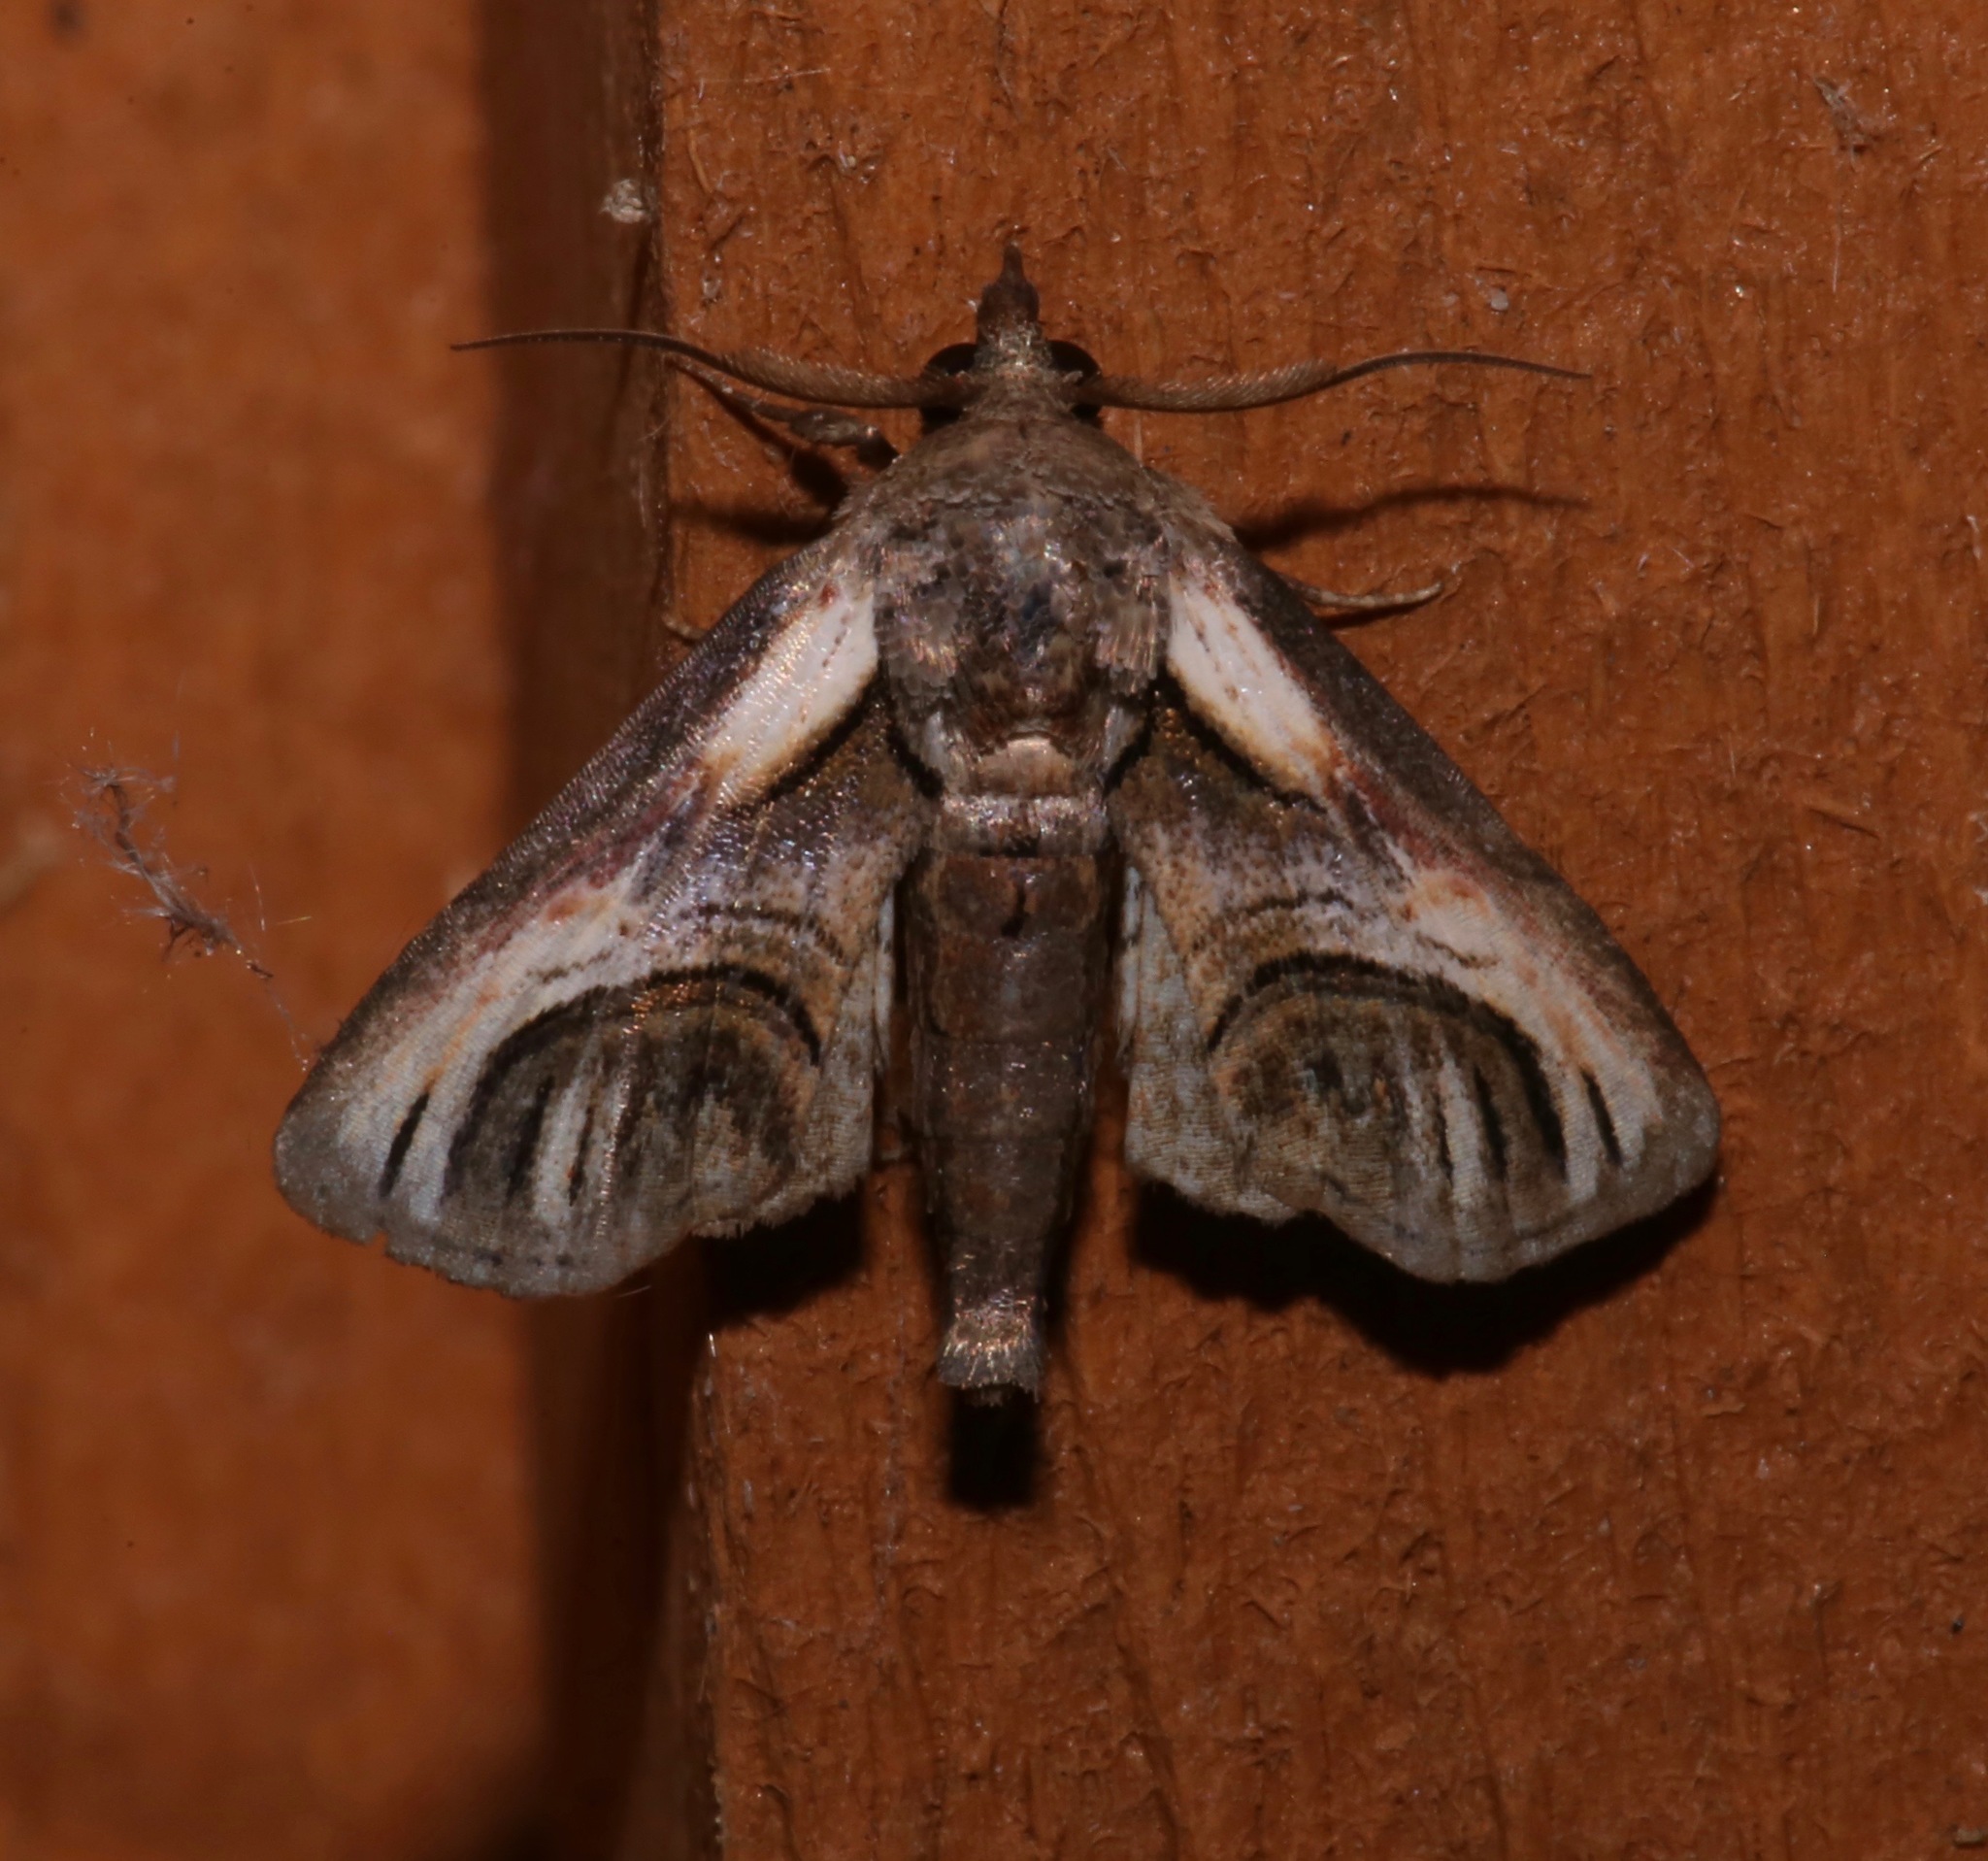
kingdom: Animalia
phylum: Arthropoda
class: Insecta
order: Lepidoptera
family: Euteliidae
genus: Paectes
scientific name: Paectes oculatrix
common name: Eyed paectes moth
